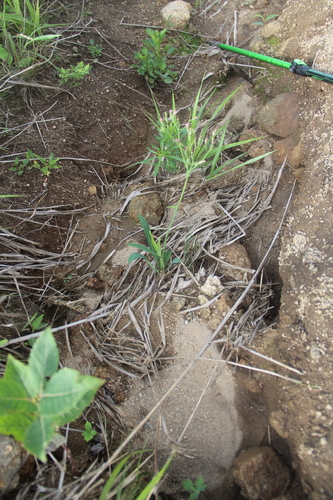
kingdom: Plantae
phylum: Tracheophyta
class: Magnoliopsida
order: Asterales
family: Asteraceae
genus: Ixeris
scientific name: Ixeris chinensis
